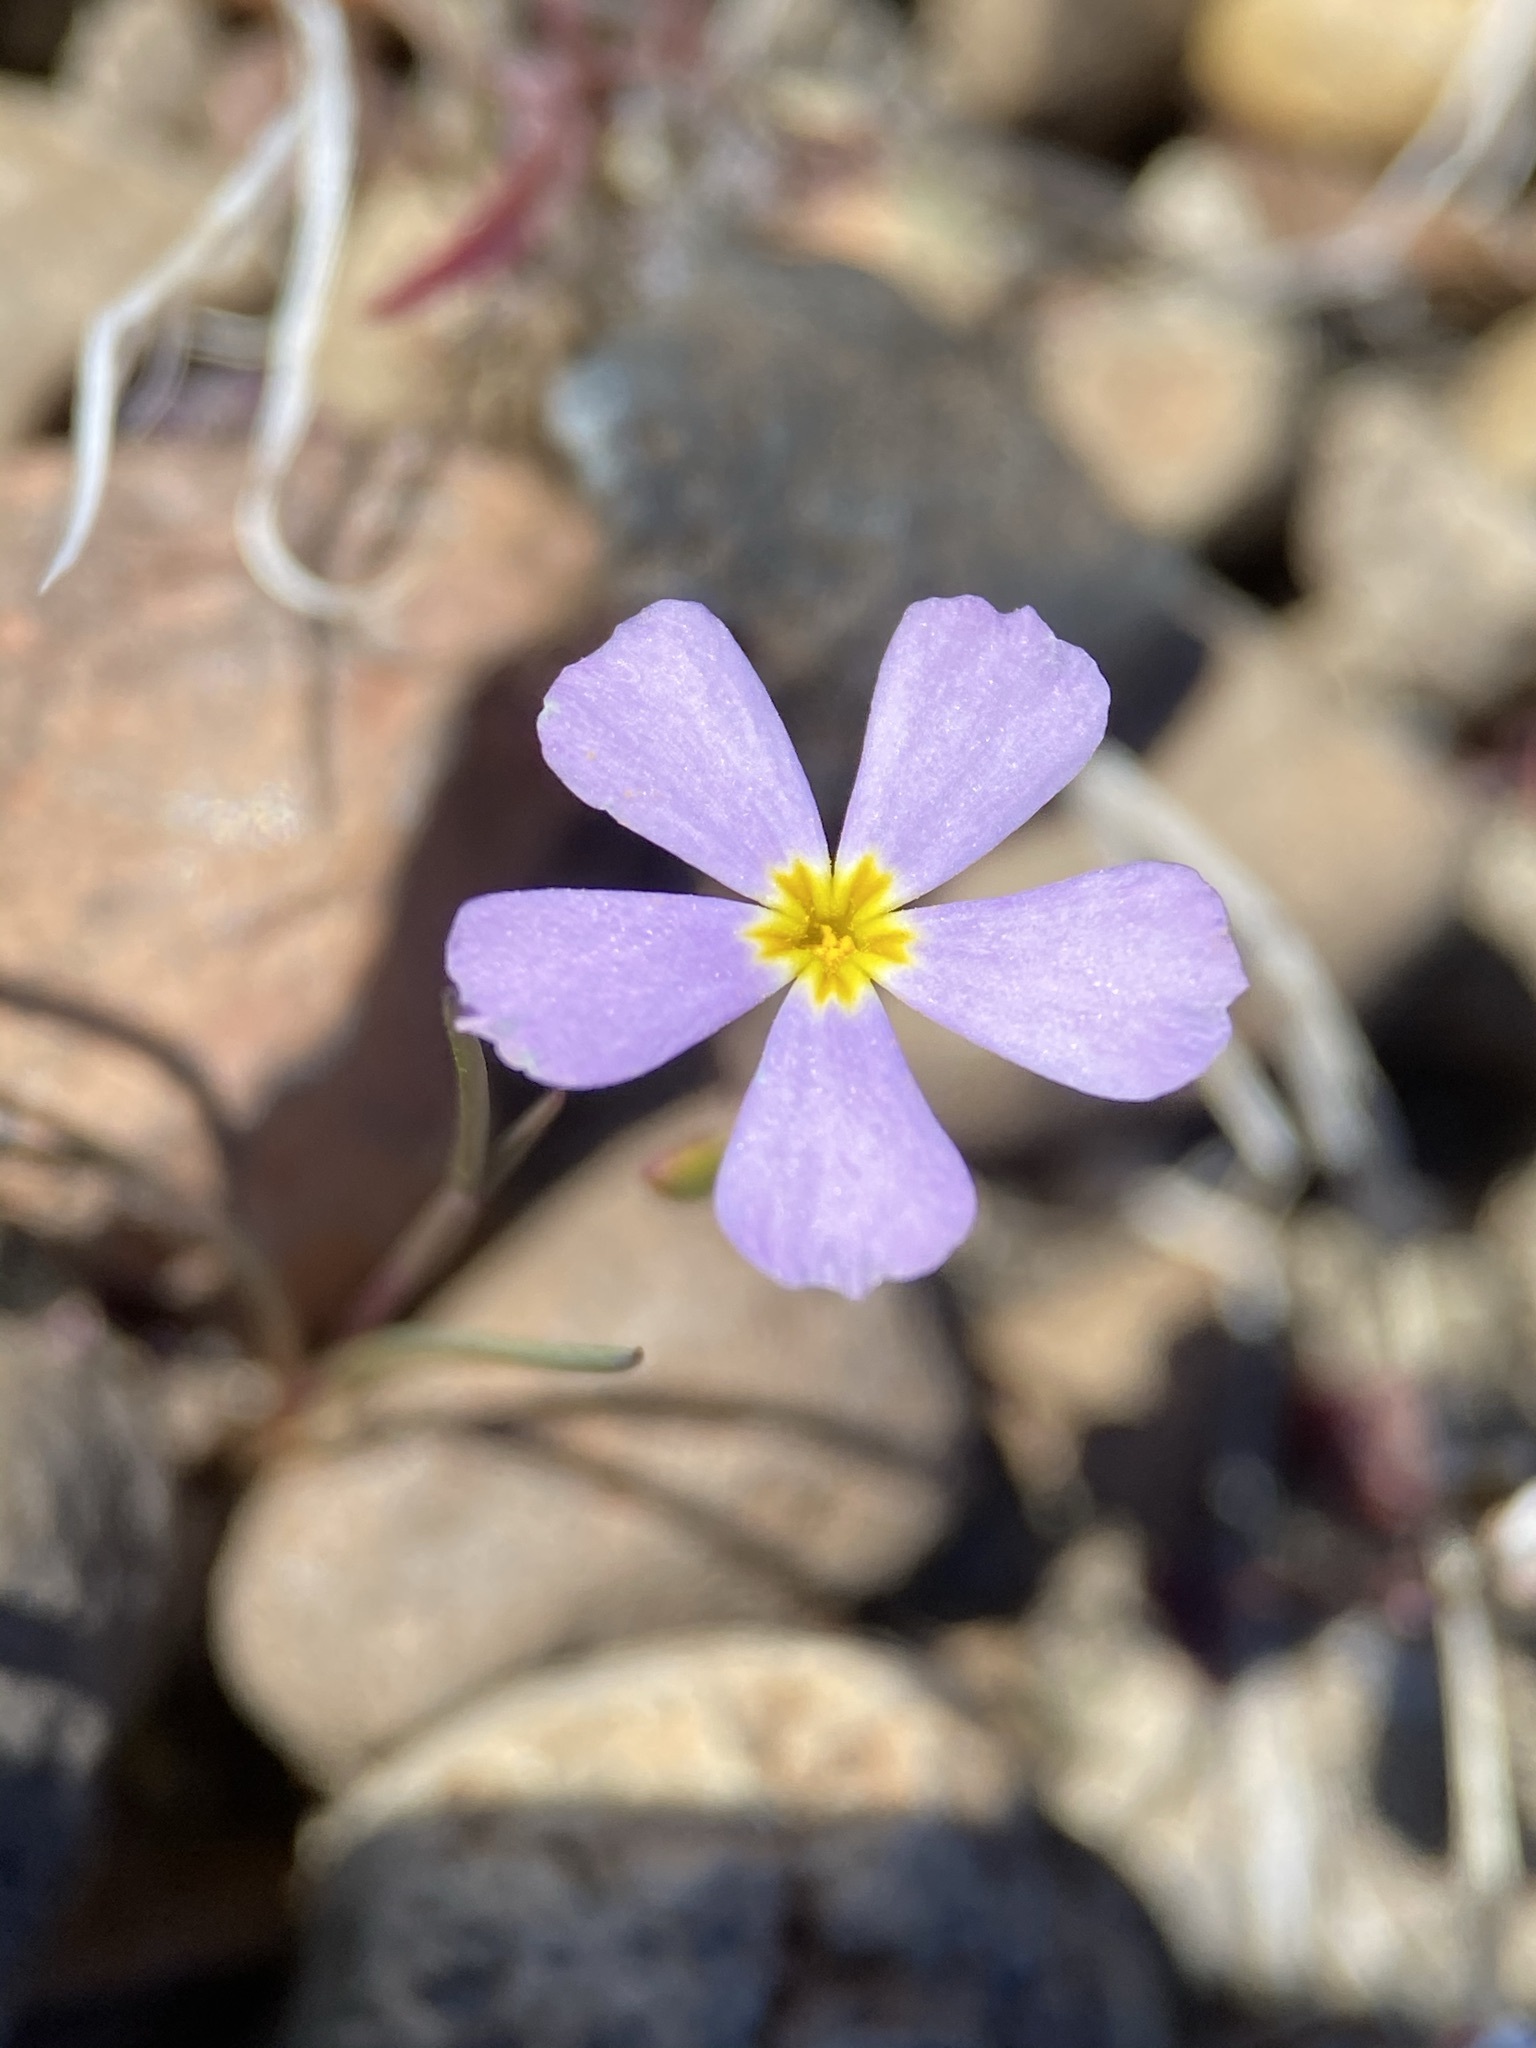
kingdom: Plantae
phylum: Tracheophyta
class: Magnoliopsida
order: Ericales
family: Polemoniaceae
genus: Gymnosteris
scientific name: Gymnosteris nudicaulis
